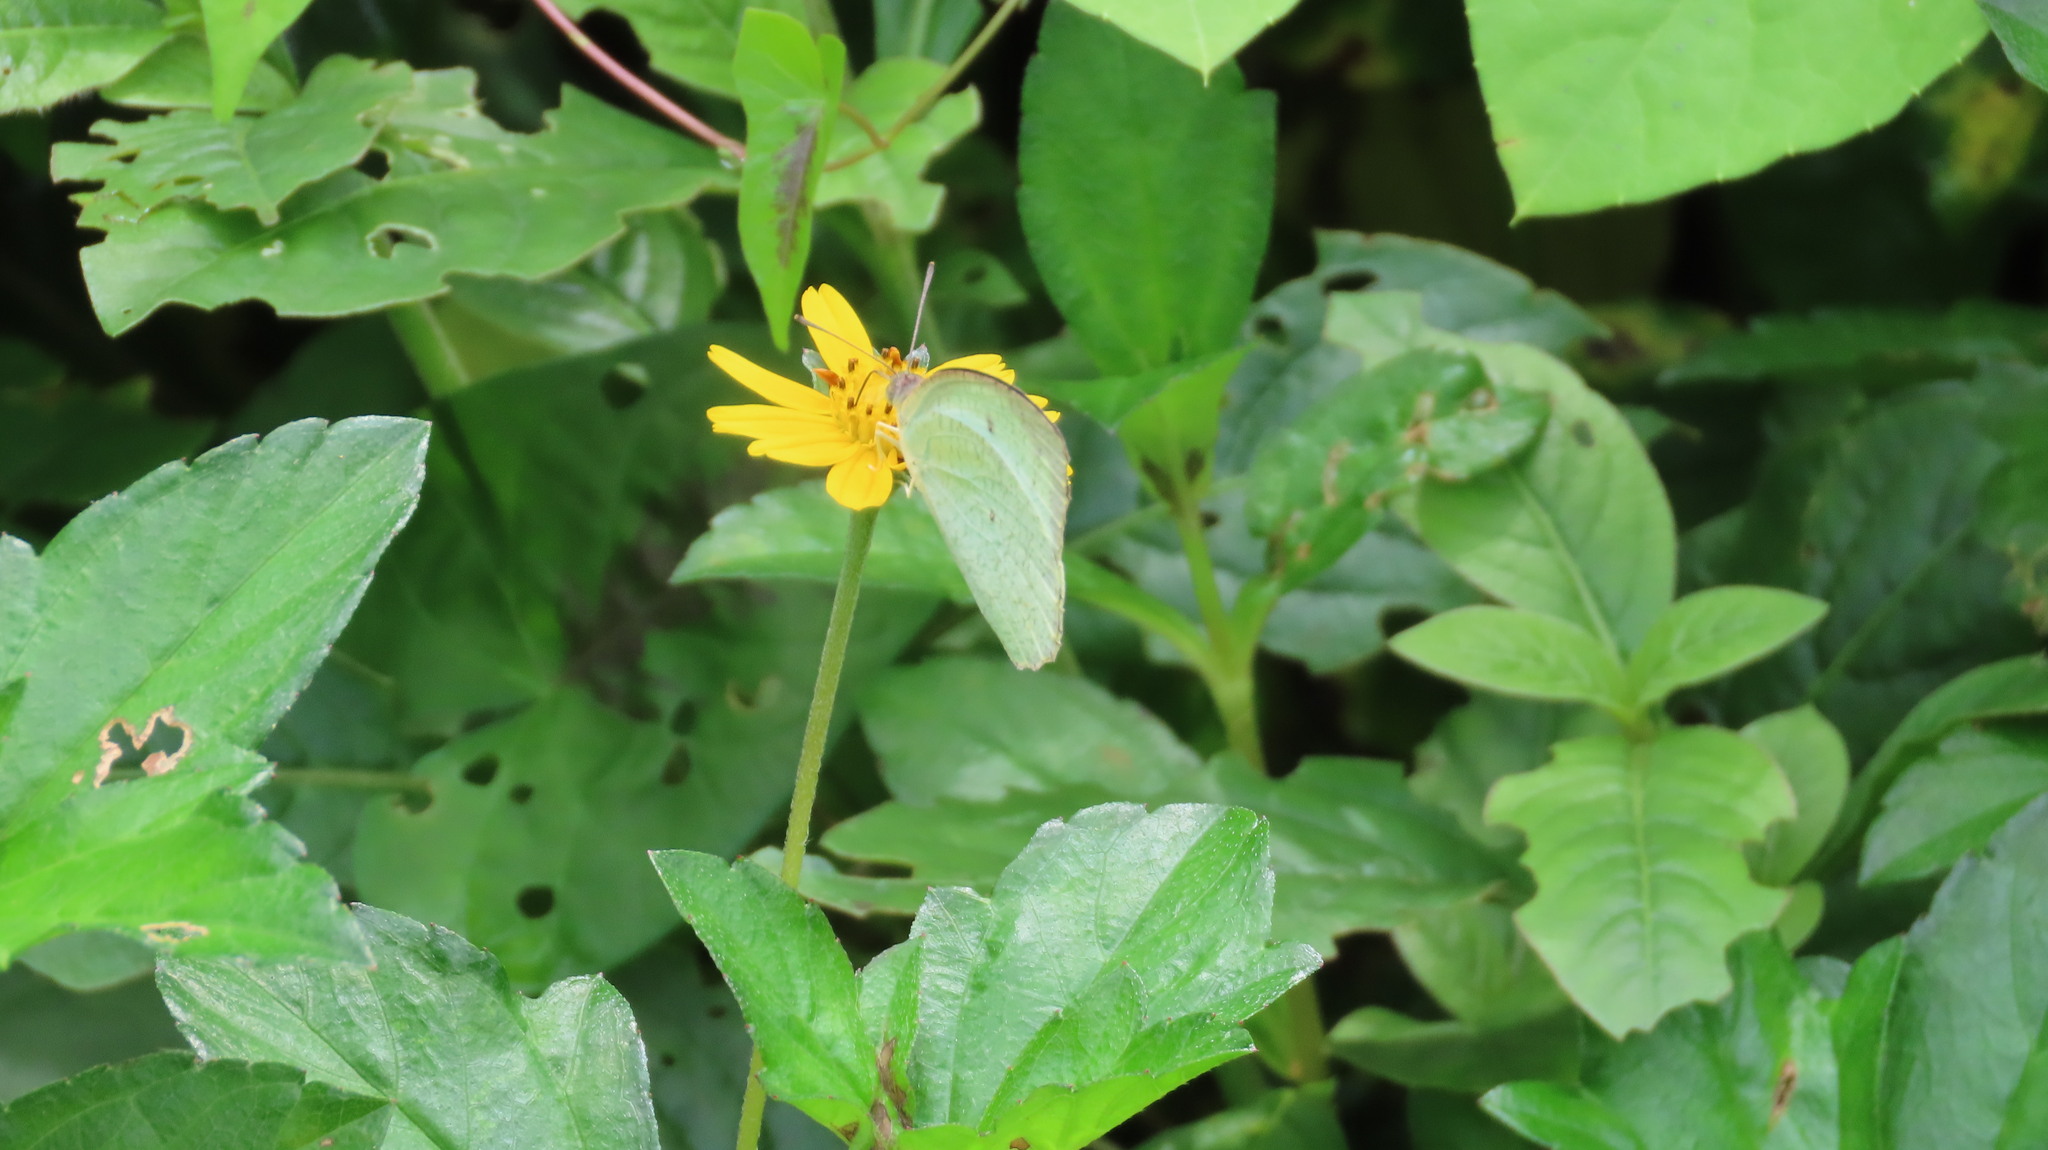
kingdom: Animalia
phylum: Arthropoda
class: Insecta
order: Lepidoptera
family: Pieridae
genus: Catopsilia
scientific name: Catopsilia pyranthe
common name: Mottled emigrant
